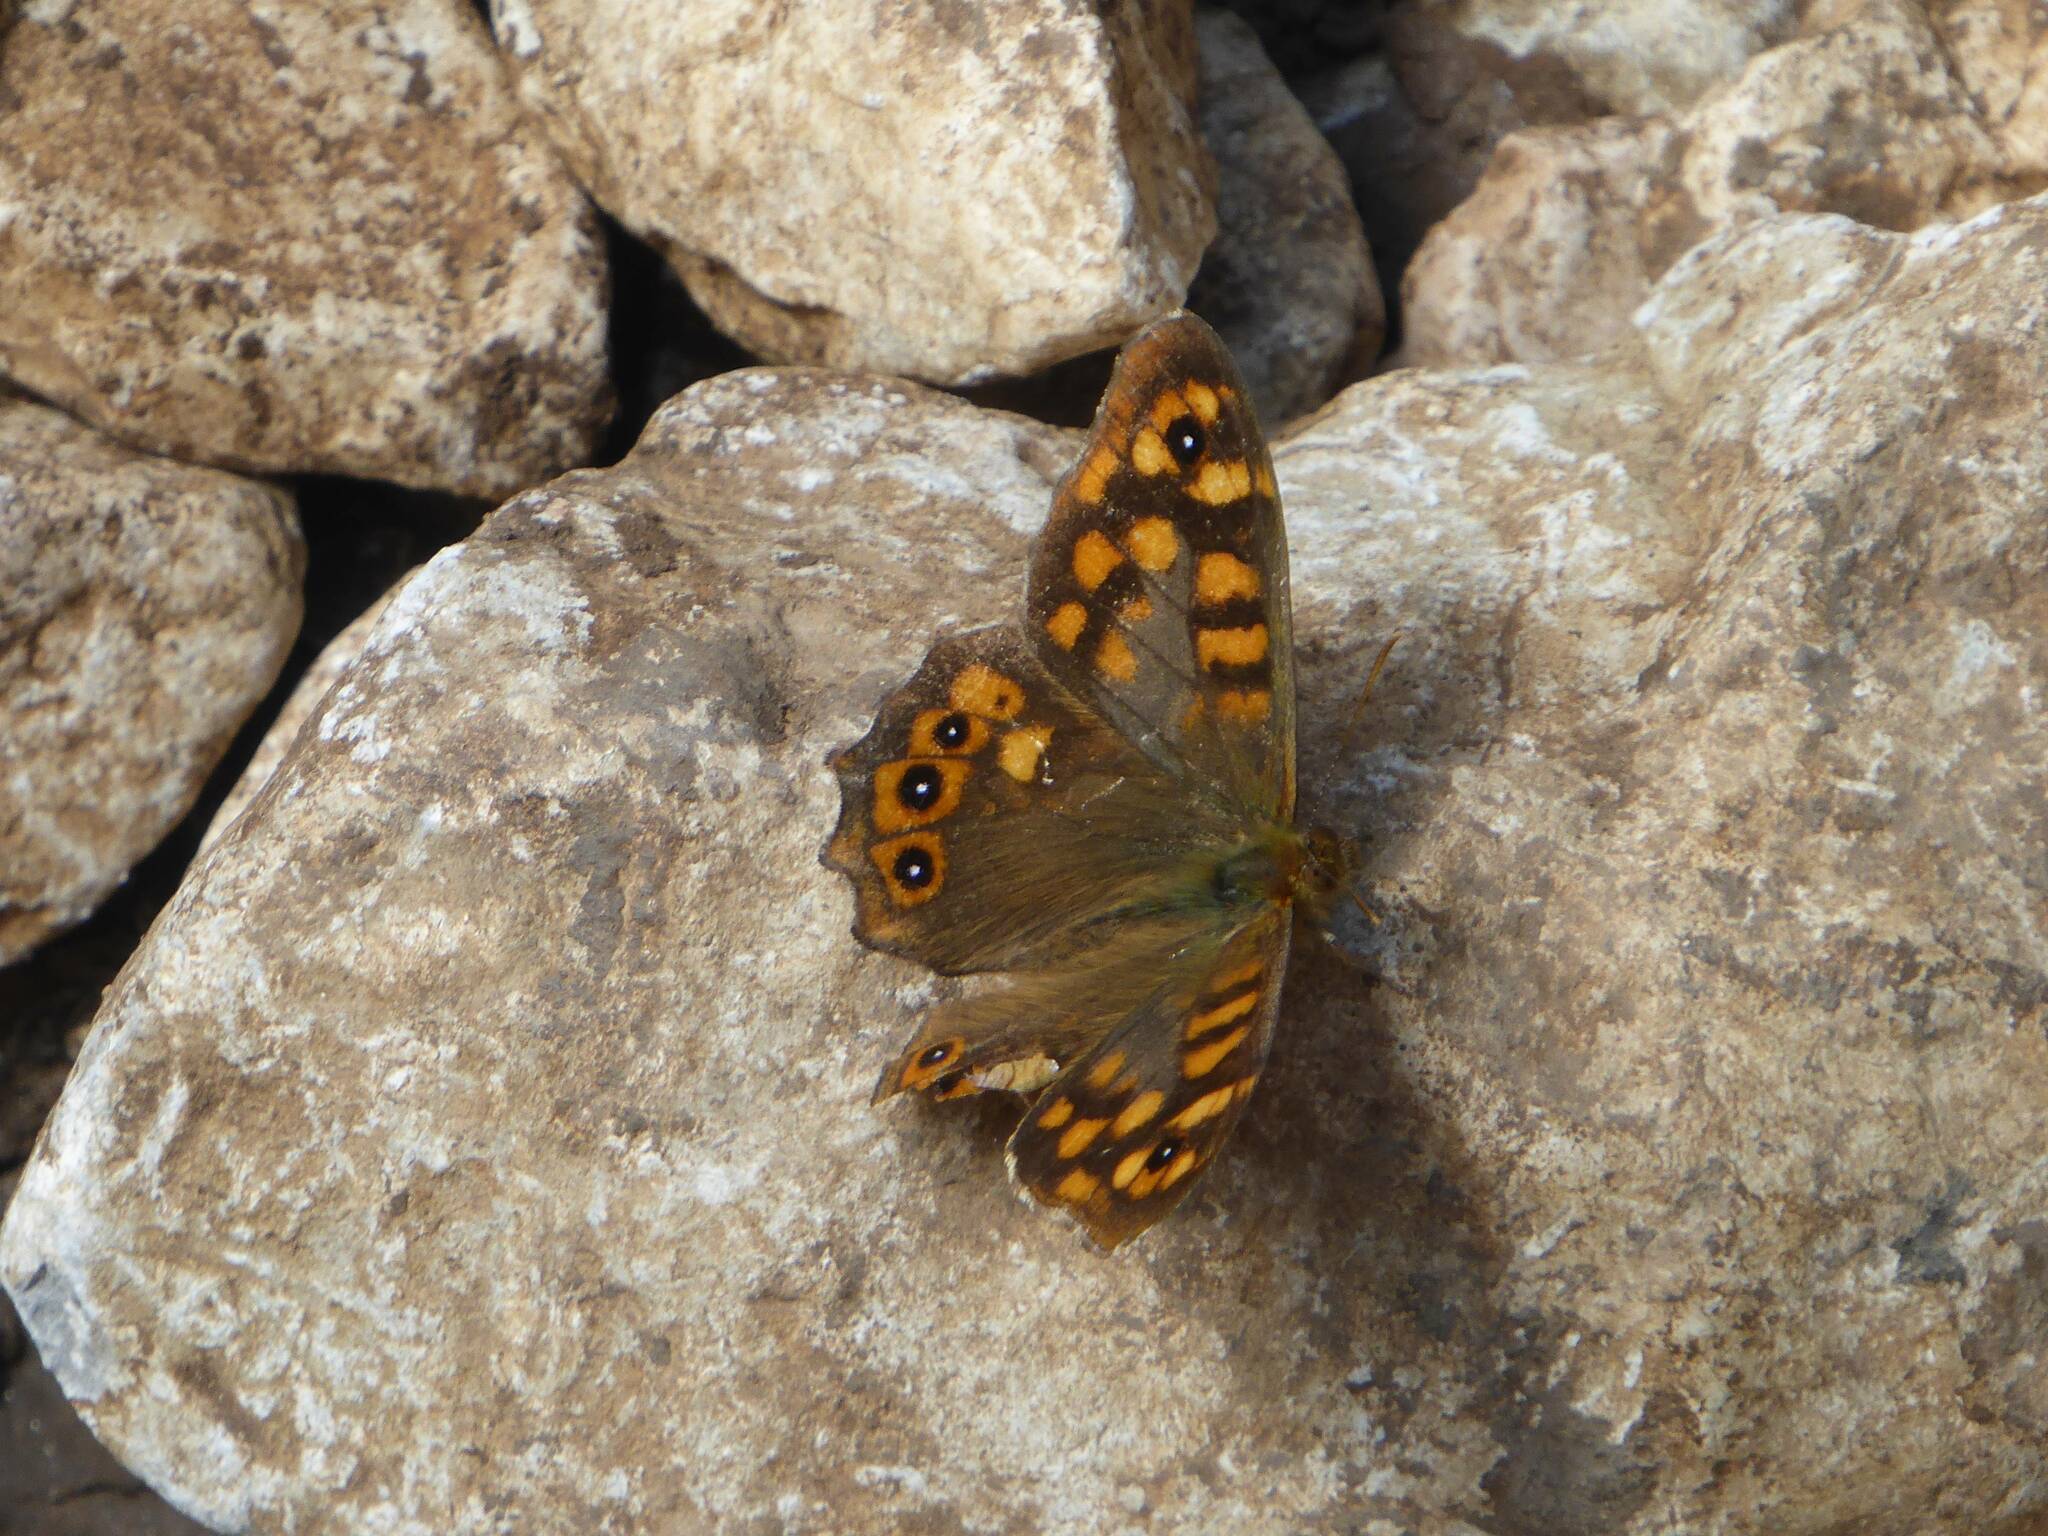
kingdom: Animalia
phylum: Arthropoda
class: Insecta
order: Lepidoptera
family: Nymphalidae
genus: Pararge
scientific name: Pararge aegeria
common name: Speckled wood
